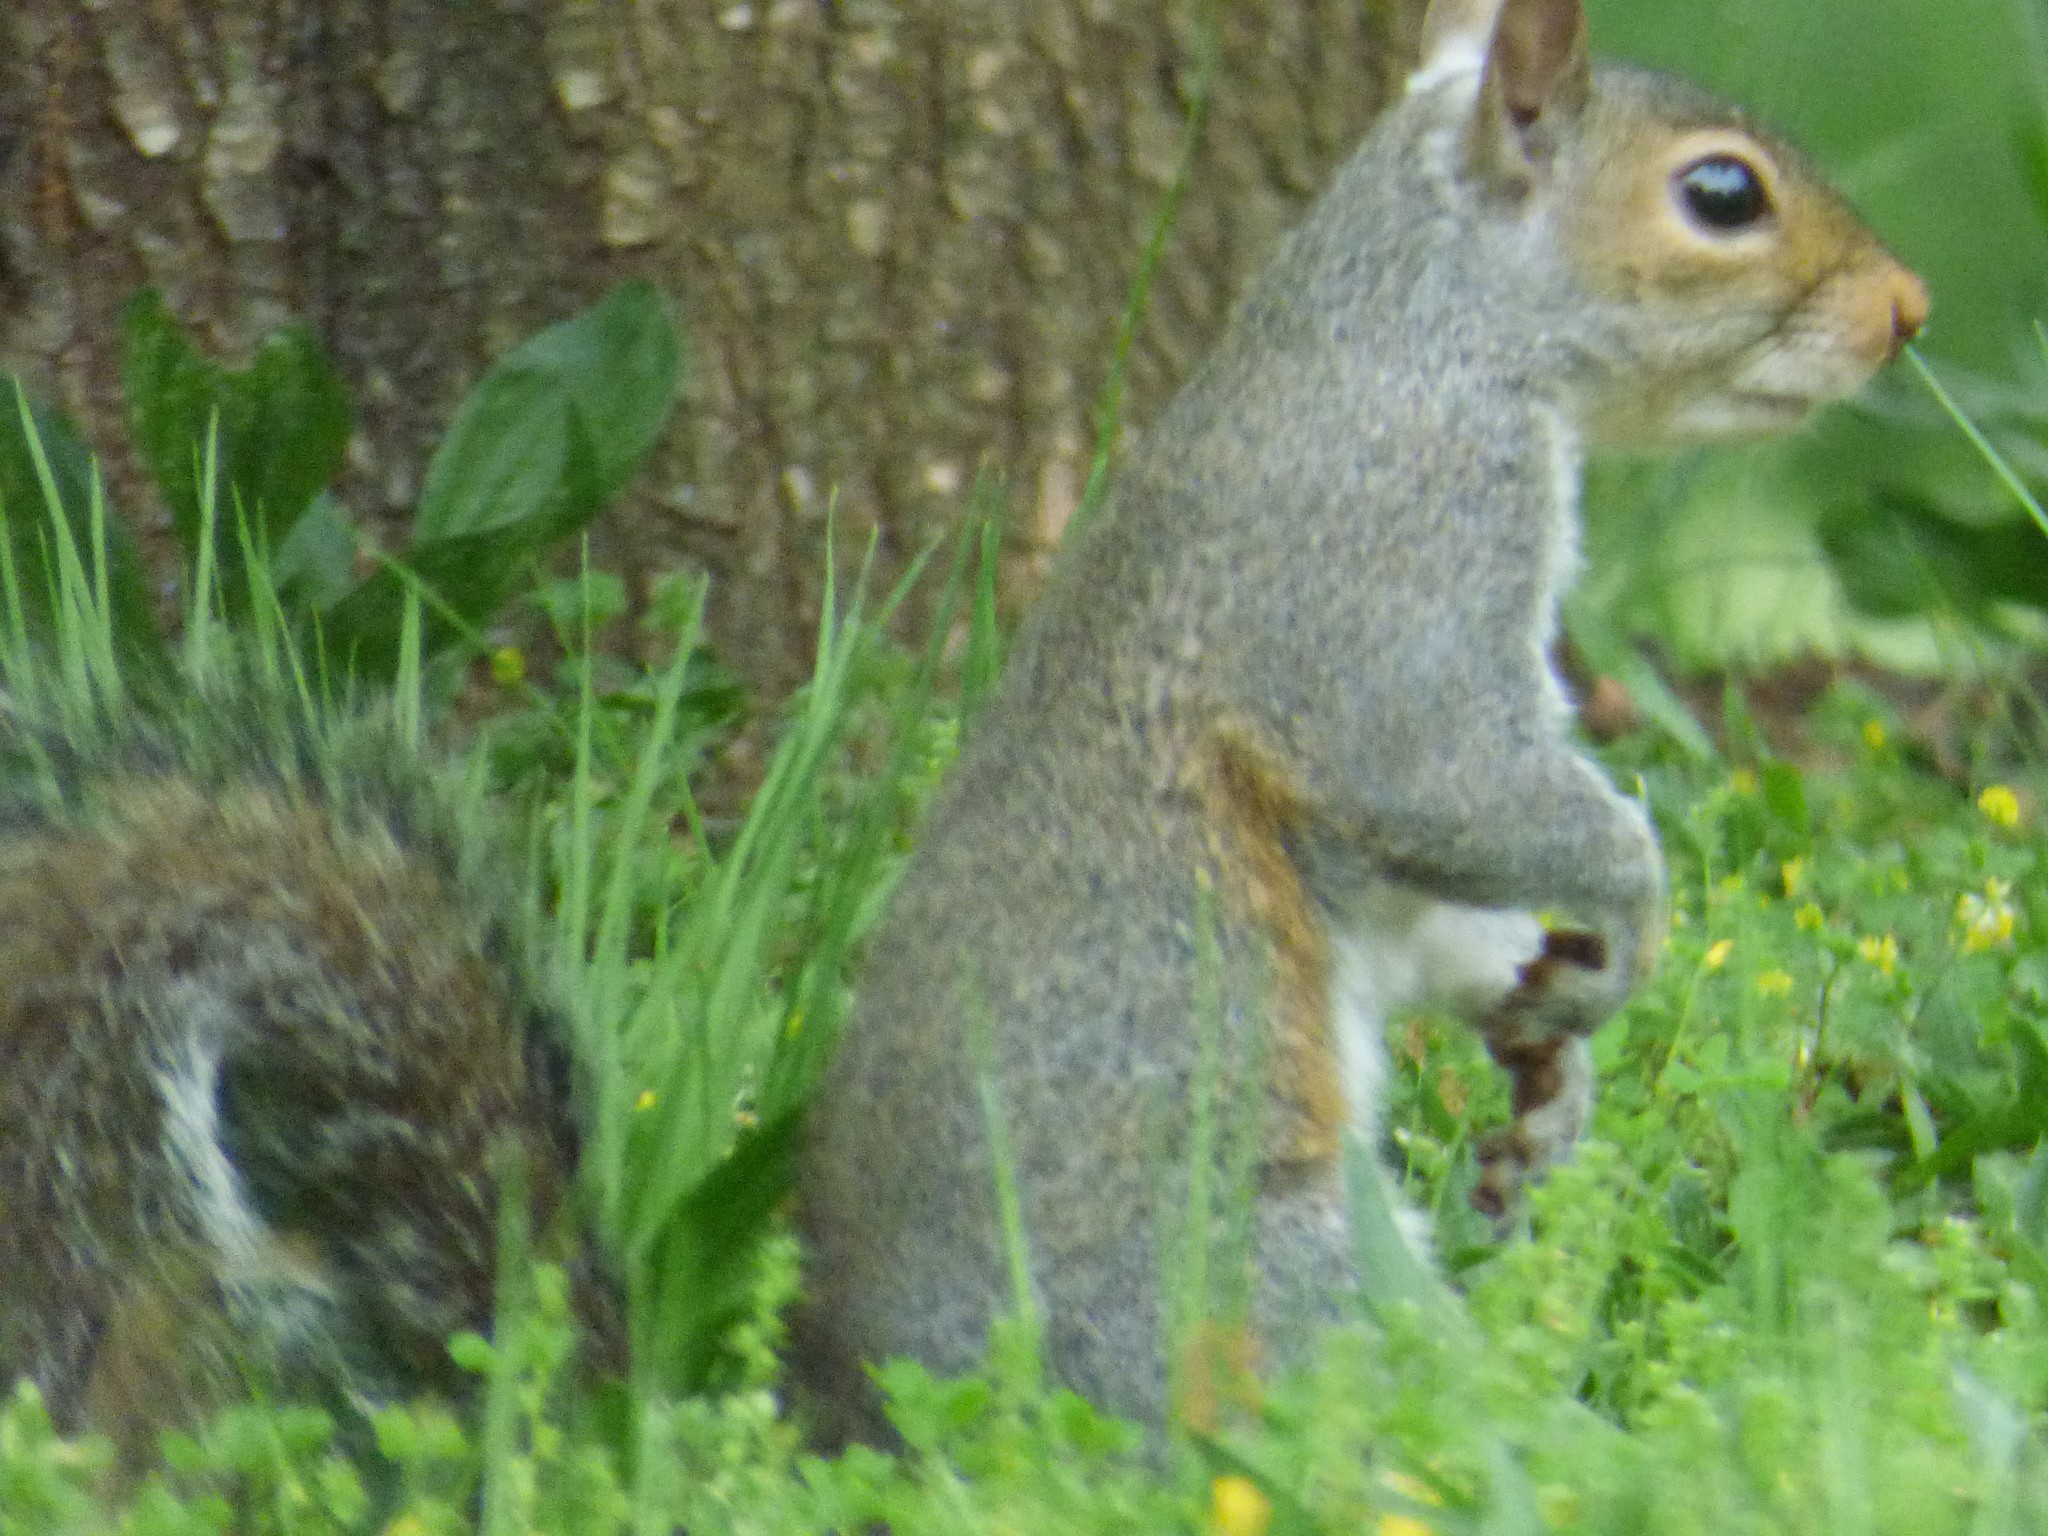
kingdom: Animalia
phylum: Chordata
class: Mammalia
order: Rodentia
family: Sciuridae
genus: Sciurus
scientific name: Sciurus carolinensis
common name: Eastern gray squirrel
